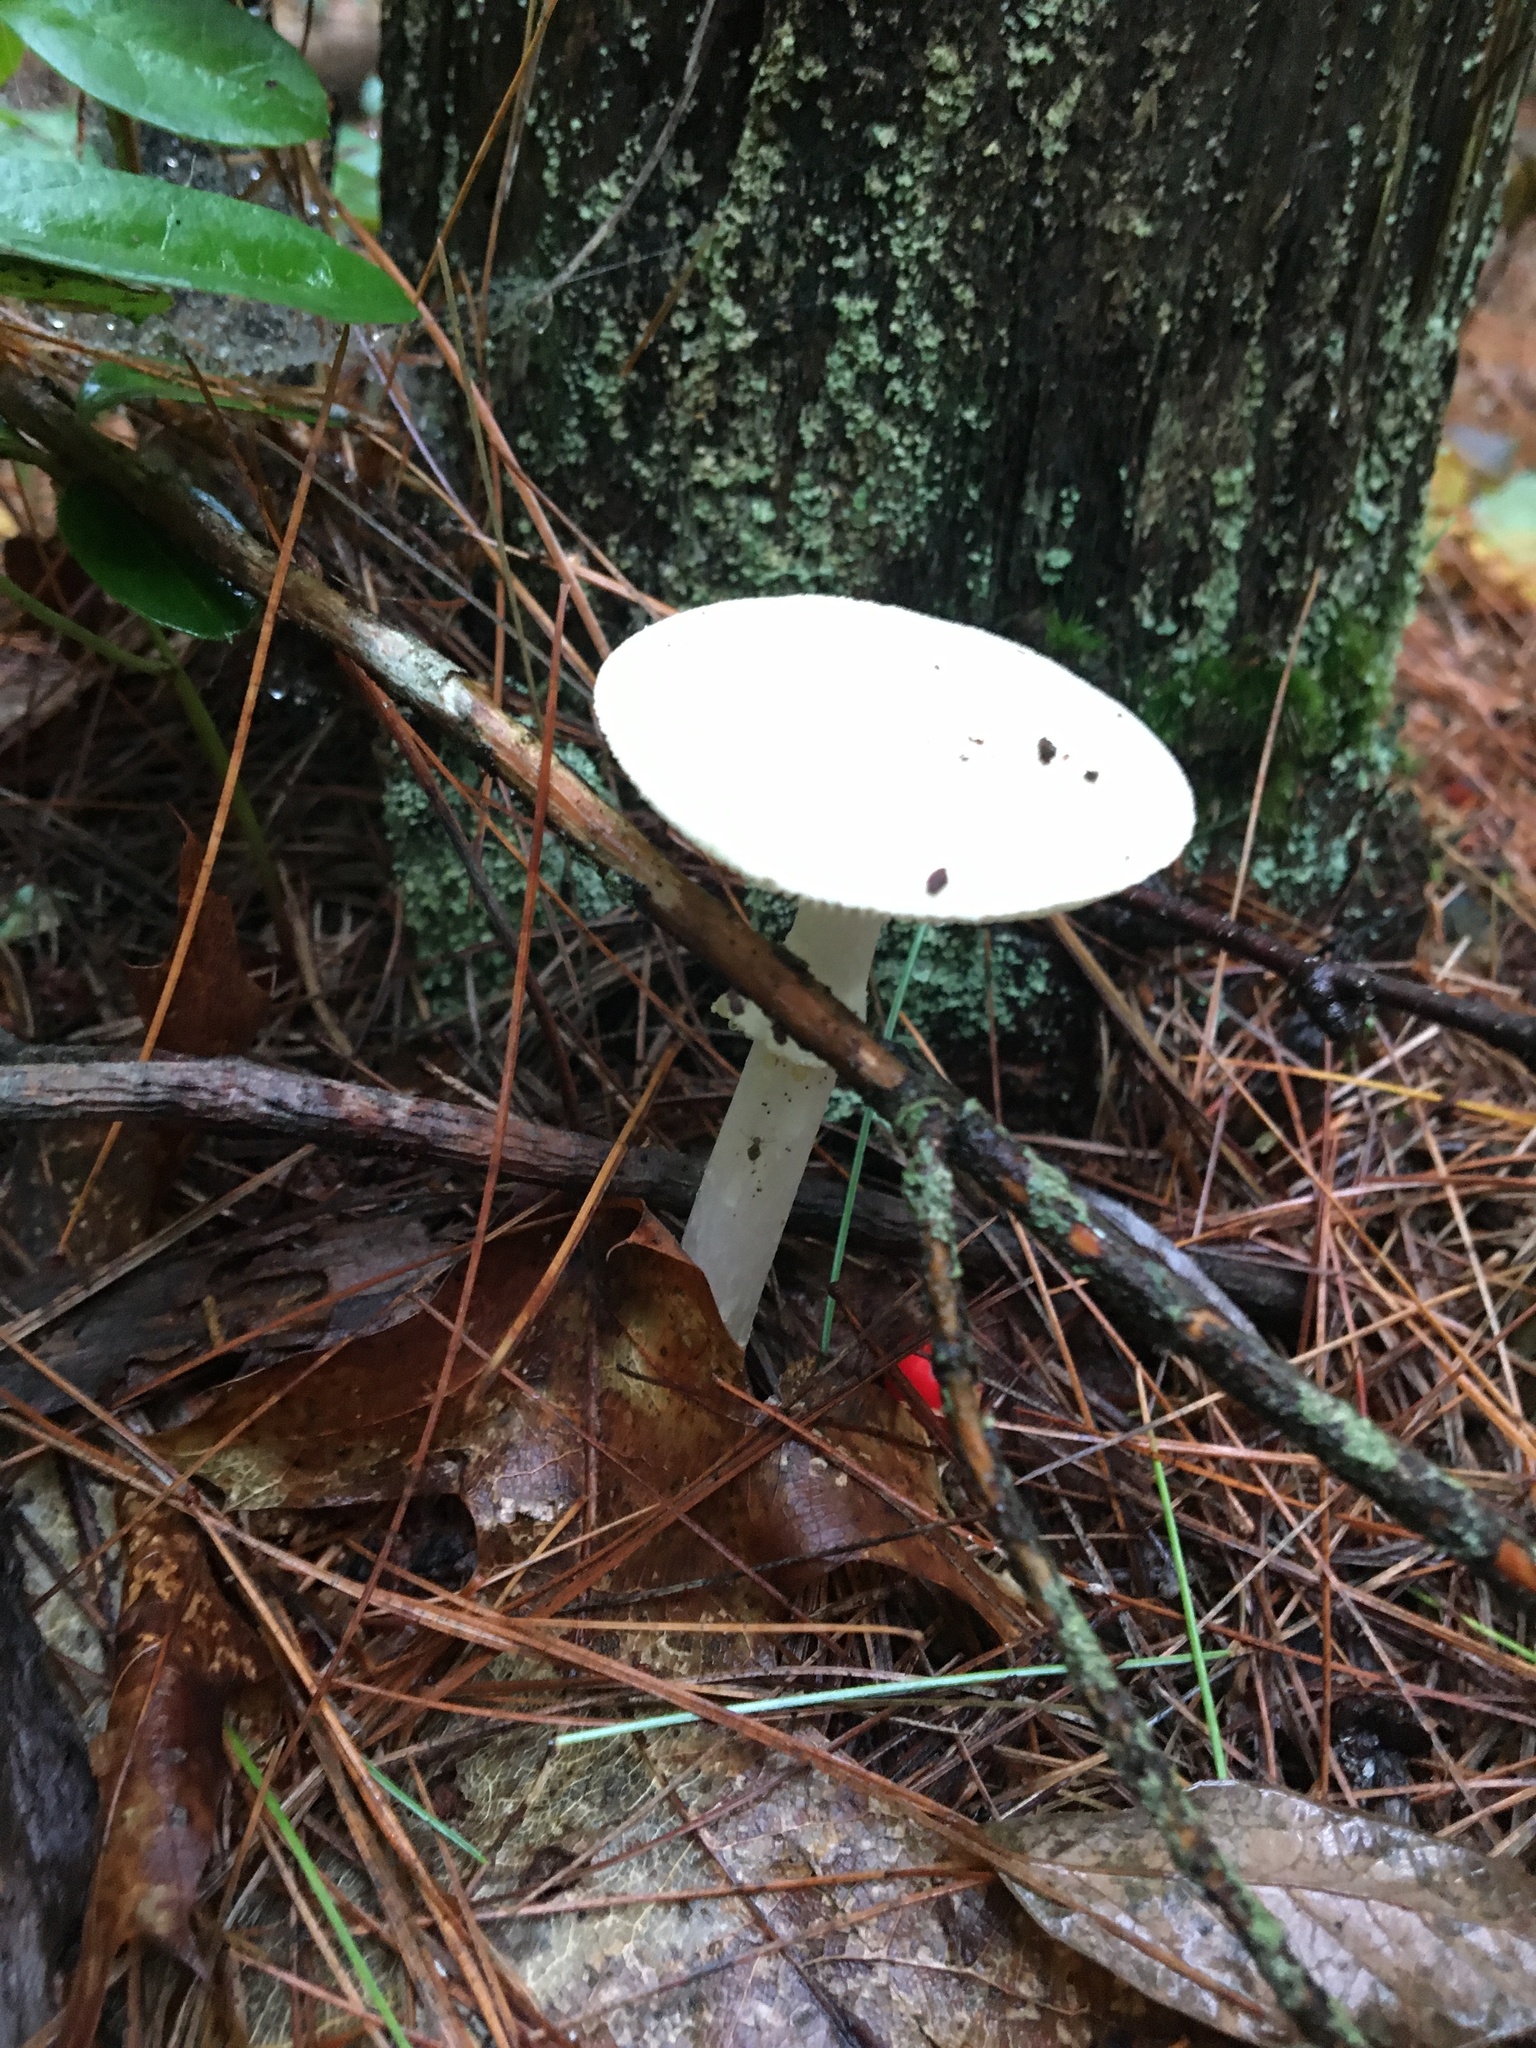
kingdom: Fungi
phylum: Basidiomycota
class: Agaricomycetes
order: Agaricales
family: Amanitaceae
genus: Amanita
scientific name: Amanita
